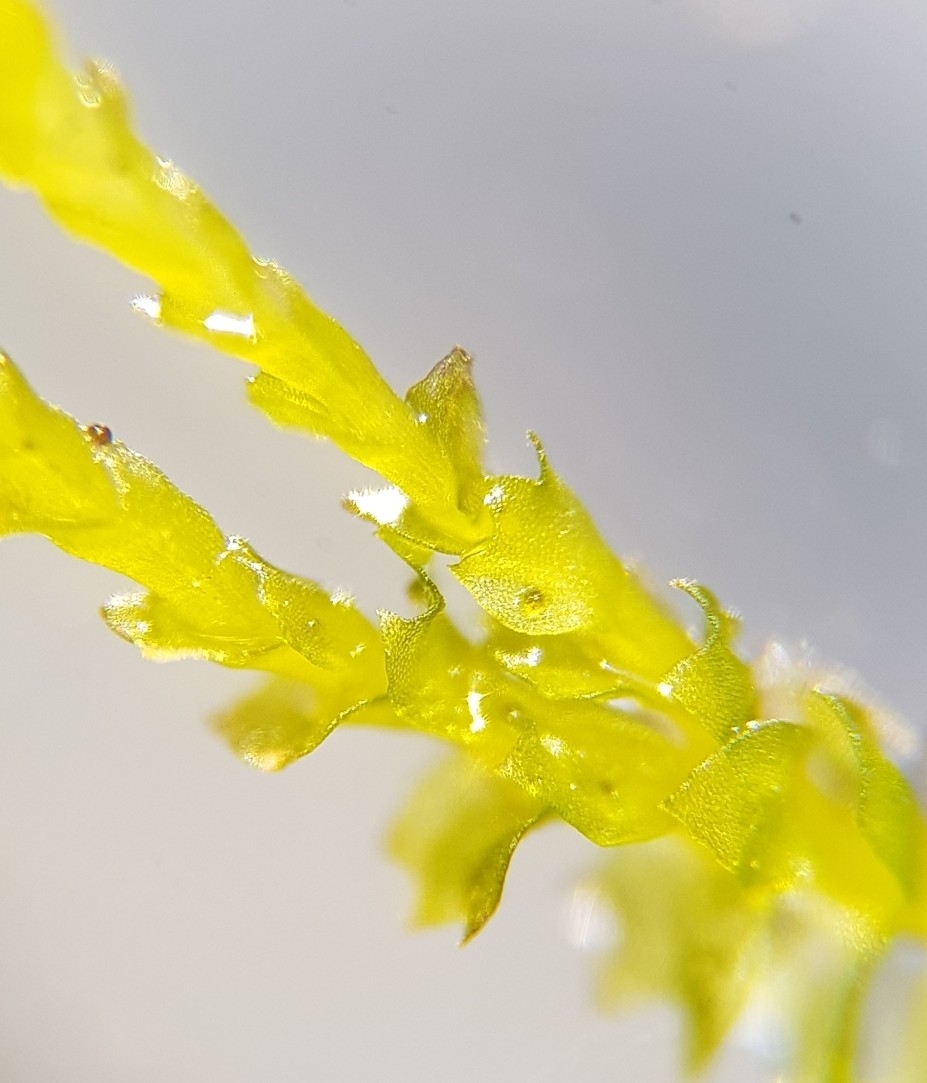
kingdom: Plantae
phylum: Marchantiophyta
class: Jungermanniopsida
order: Jungermanniales
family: Anastrophyllaceae
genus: Neoorthocaulis
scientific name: Neoorthocaulis attenuatus
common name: Trunk pawwort
